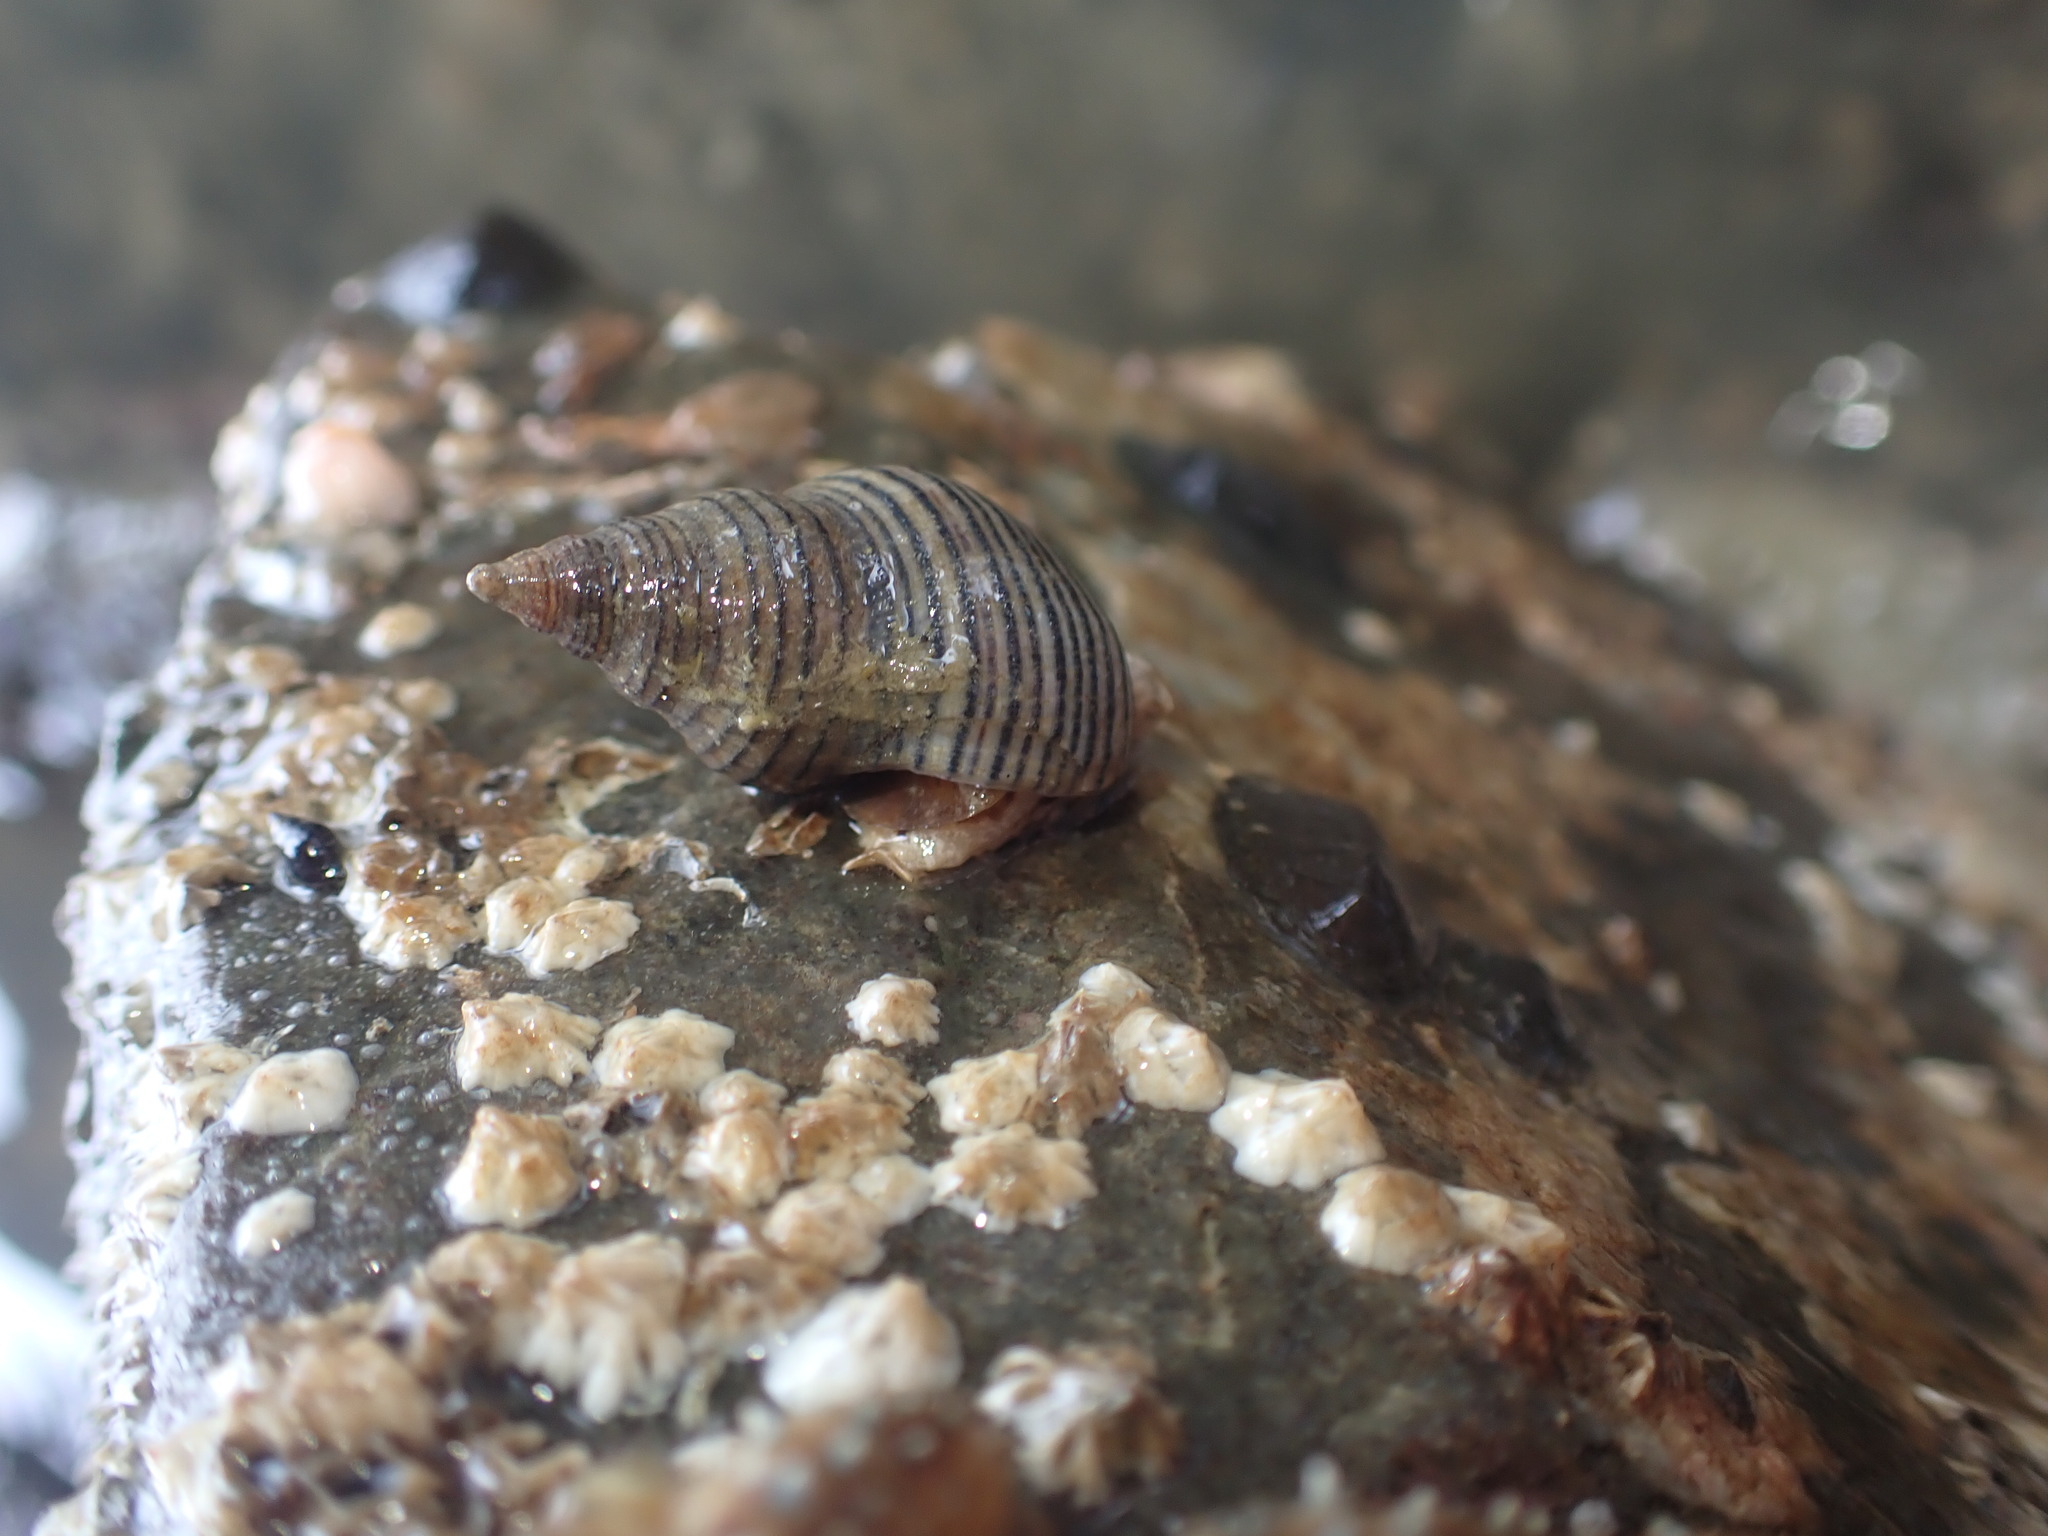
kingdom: Animalia
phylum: Mollusca
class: Gastropoda
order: Neogastropoda
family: Tudiclidae
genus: Buccinulum
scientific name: Buccinulum linea
